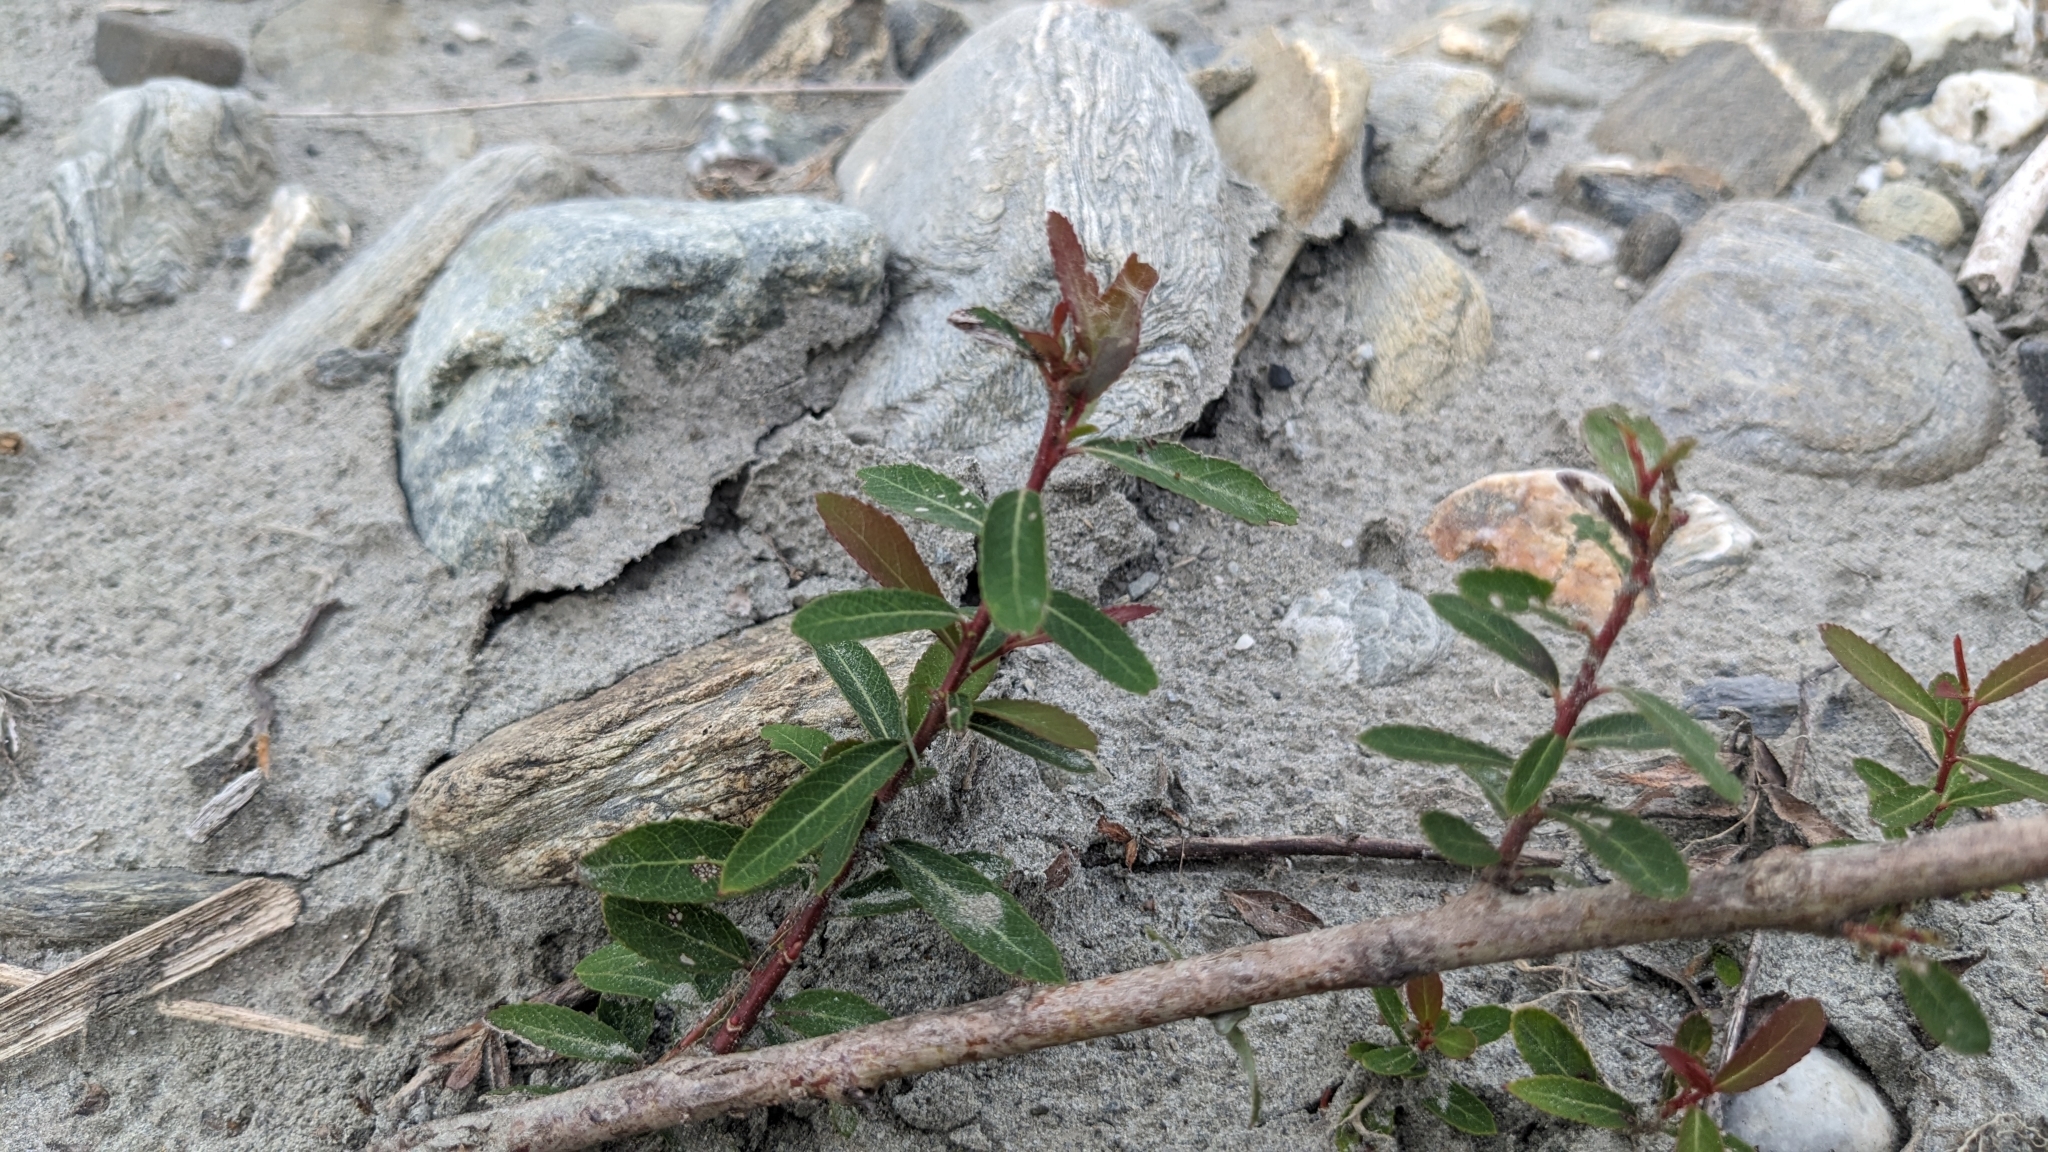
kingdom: Plantae
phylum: Tracheophyta
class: Magnoliopsida
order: Malpighiales
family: Salicaceae
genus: Salix
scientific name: Salix mesnyi
